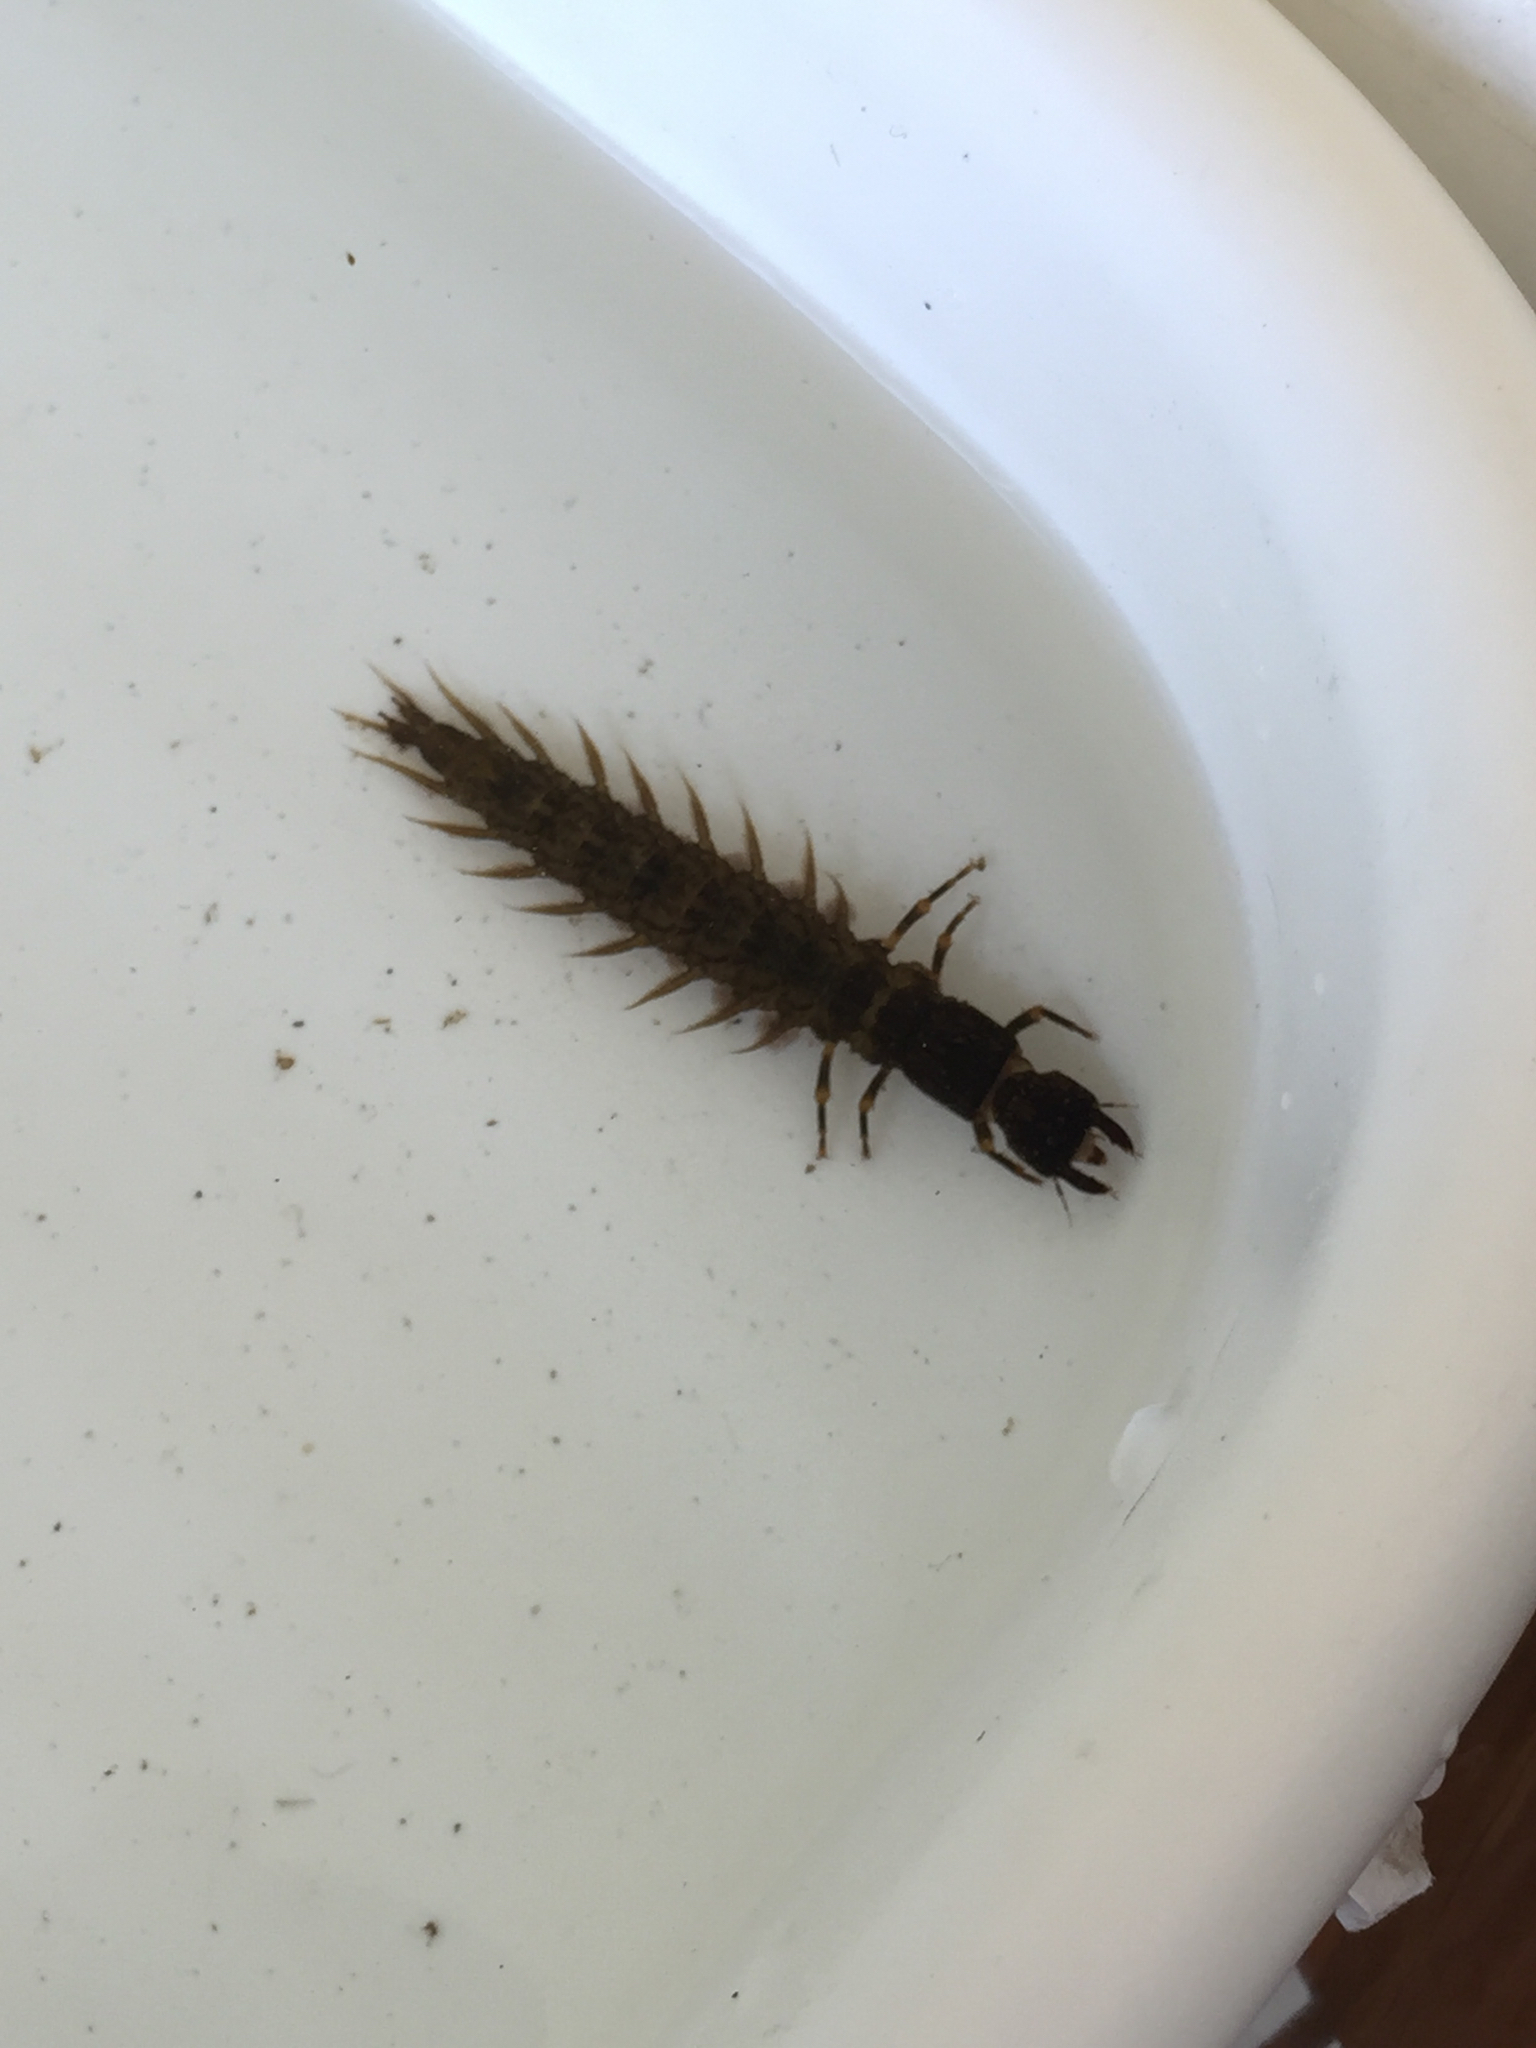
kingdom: Animalia
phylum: Arthropoda
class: Insecta
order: Megaloptera
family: Corydalidae
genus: Corydalus
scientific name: Corydalus cornutus
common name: Dobsonfly
